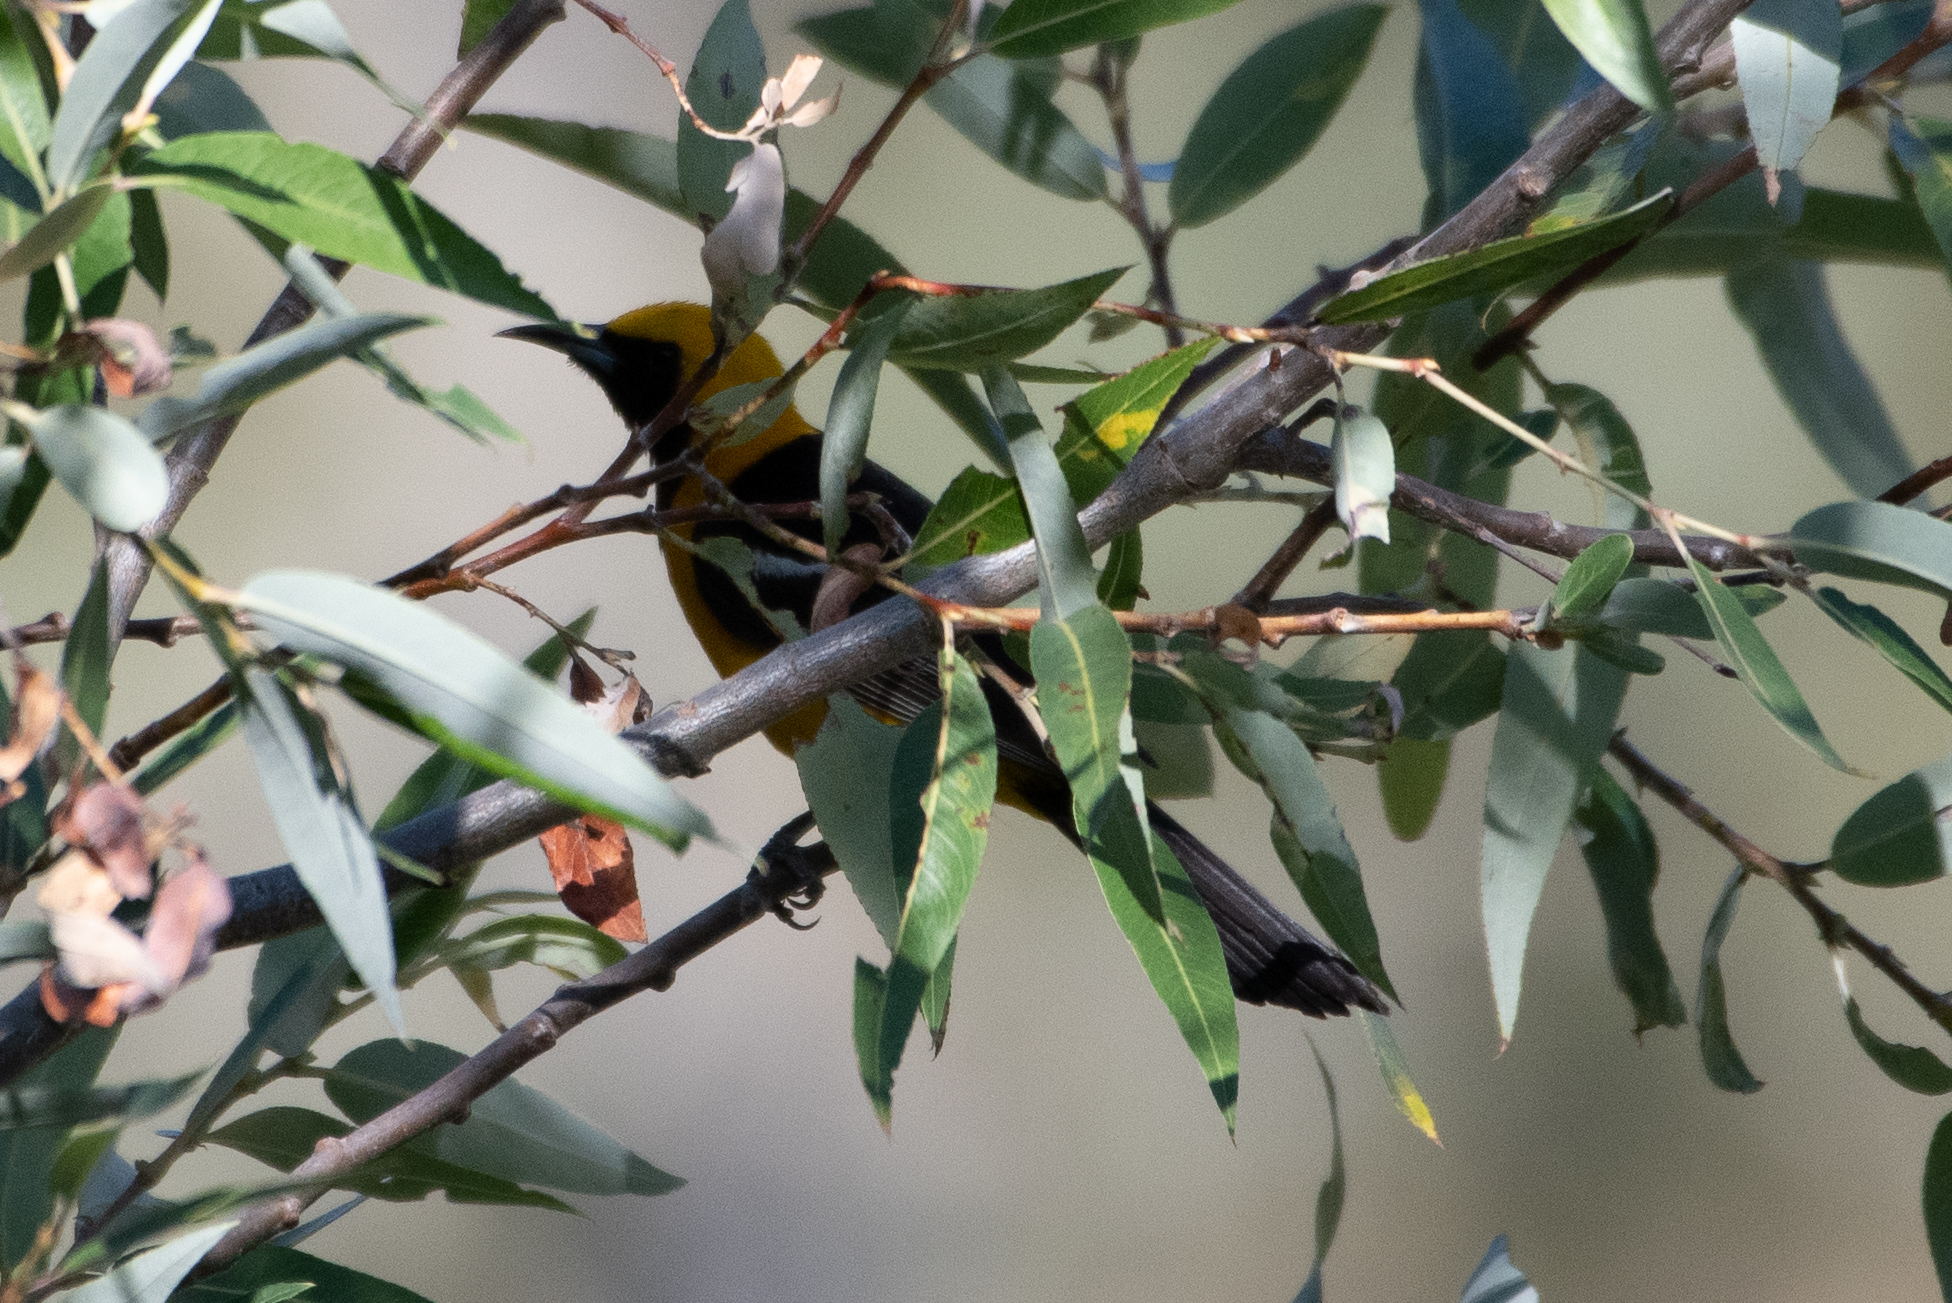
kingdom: Animalia
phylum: Chordata
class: Aves
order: Passeriformes
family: Icteridae
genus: Icterus
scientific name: Icterus cucullatus
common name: Hooded oriole
